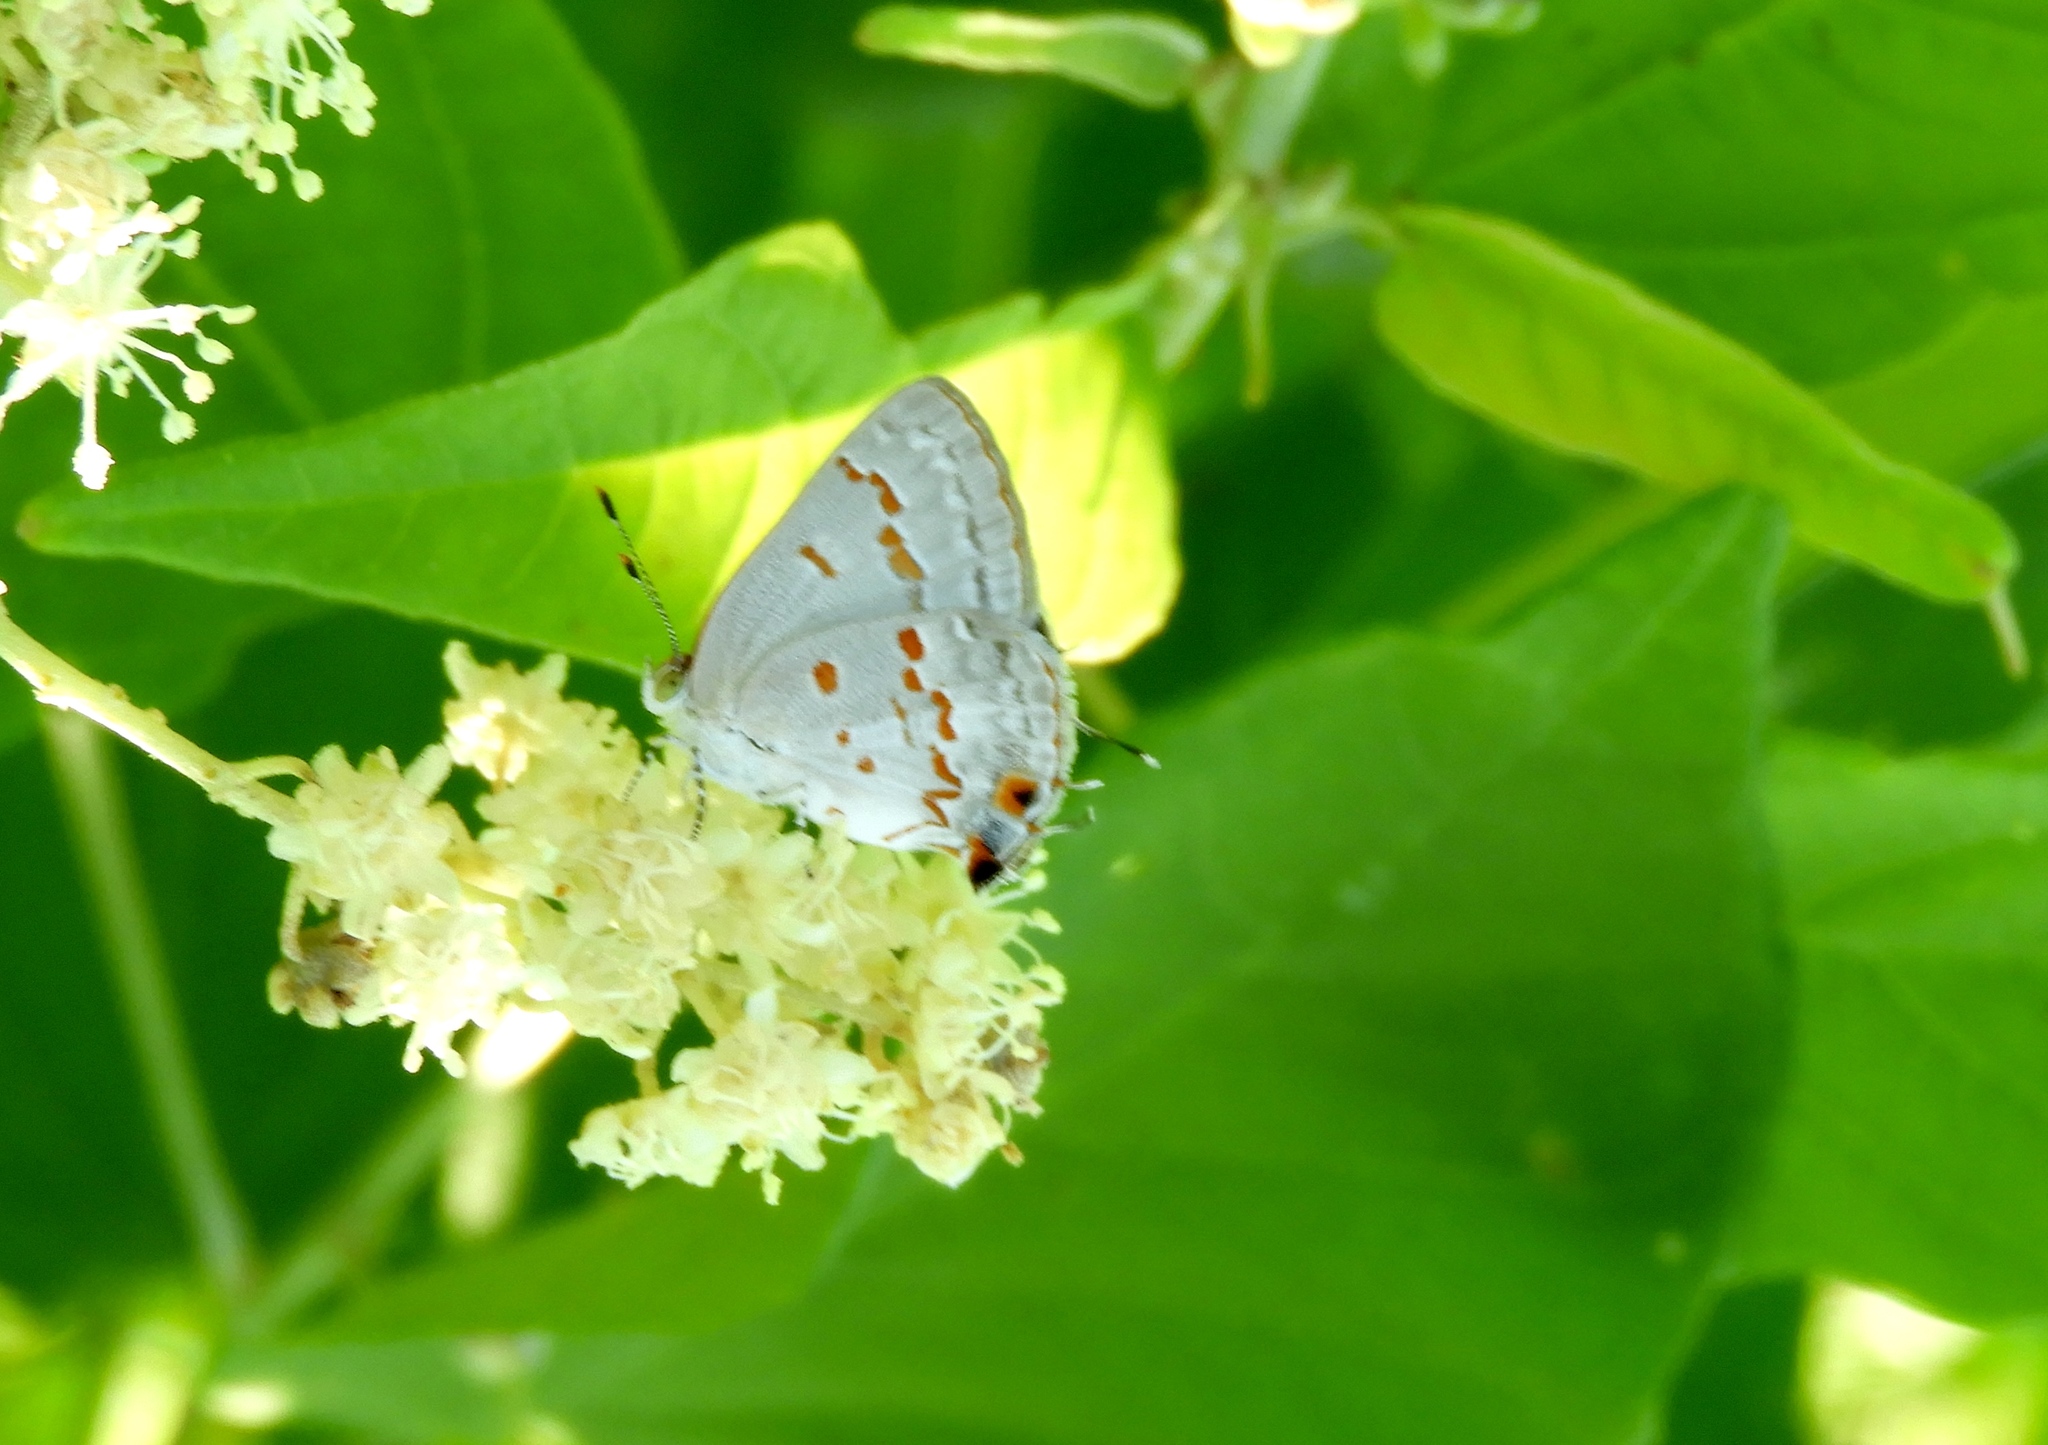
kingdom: Animalia
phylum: Arthropoda
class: Insecta
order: Lepidoptera
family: Lycaenidae
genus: Ministrymon
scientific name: Ministrymon
